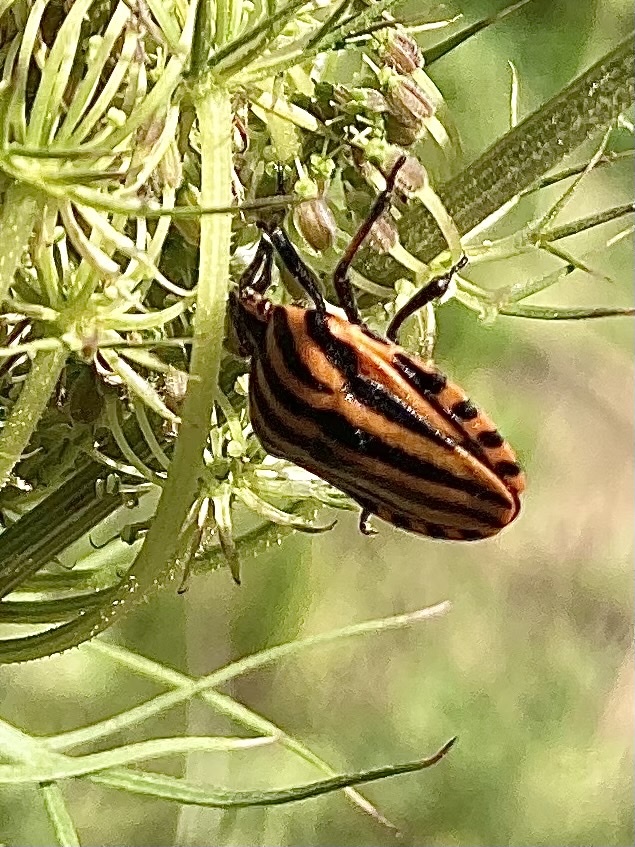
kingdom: Animalia
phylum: Arthropoda
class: Insecta
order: Hemiptera
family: Pentatomidae
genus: Graphosoma
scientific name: Graphosoma italicum
